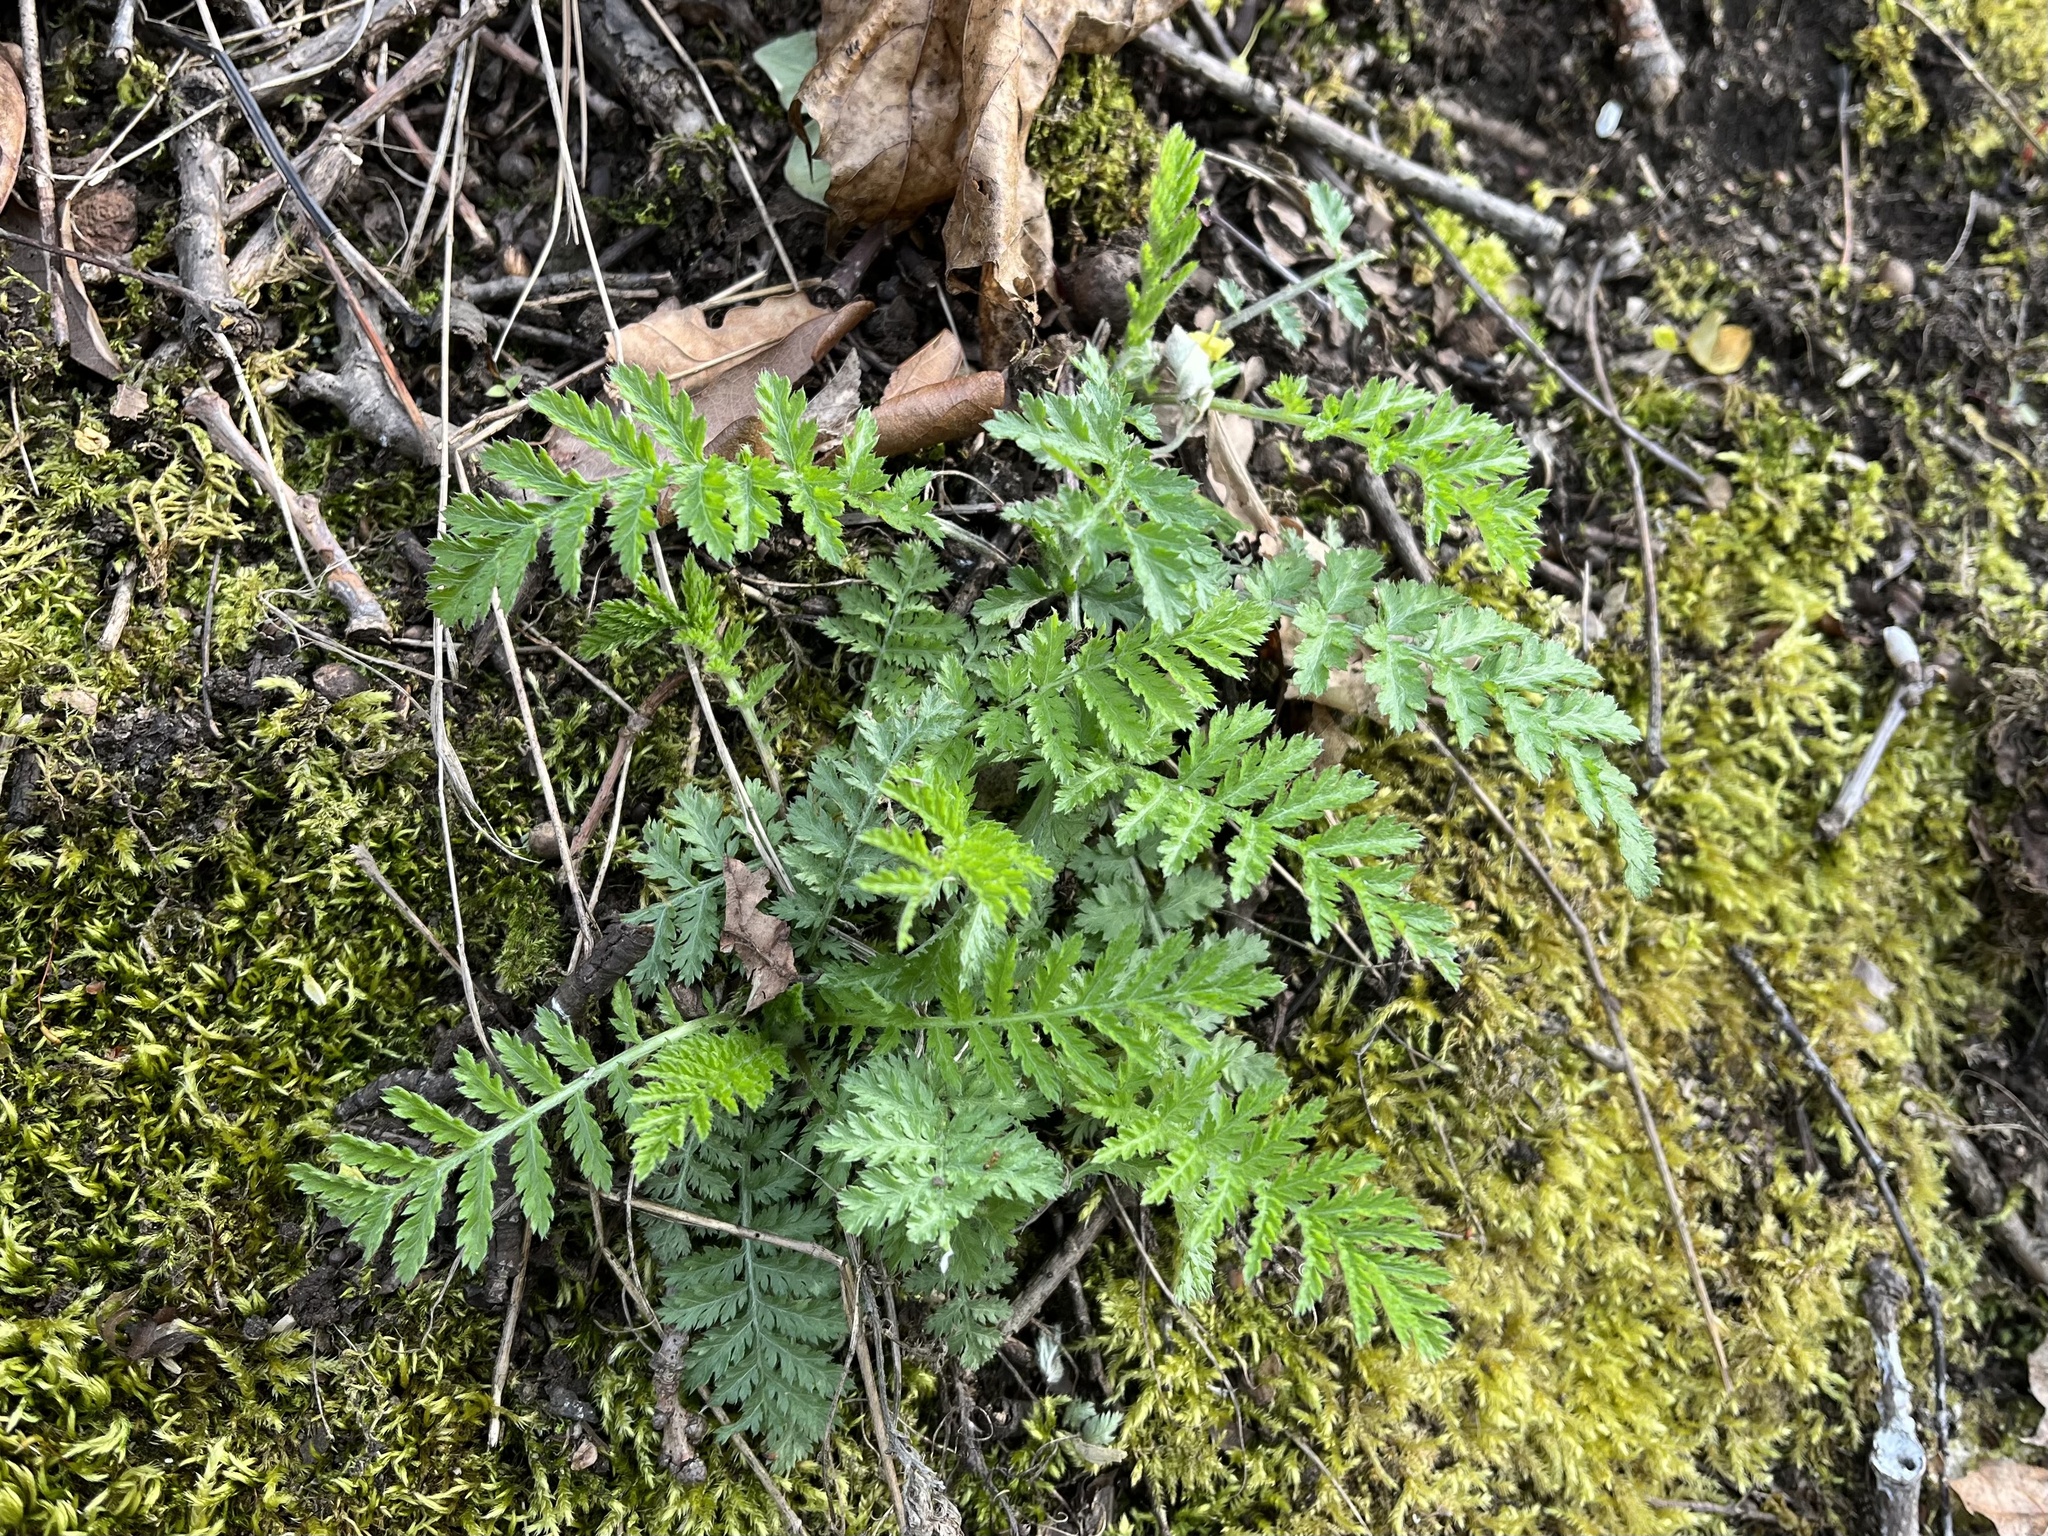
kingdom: Plantae
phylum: Tracheophyta
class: Magnoliopsida
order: Asterales
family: Asteraceae
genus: Tanacetum
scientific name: Tanacetum vulgare
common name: Common tansy
